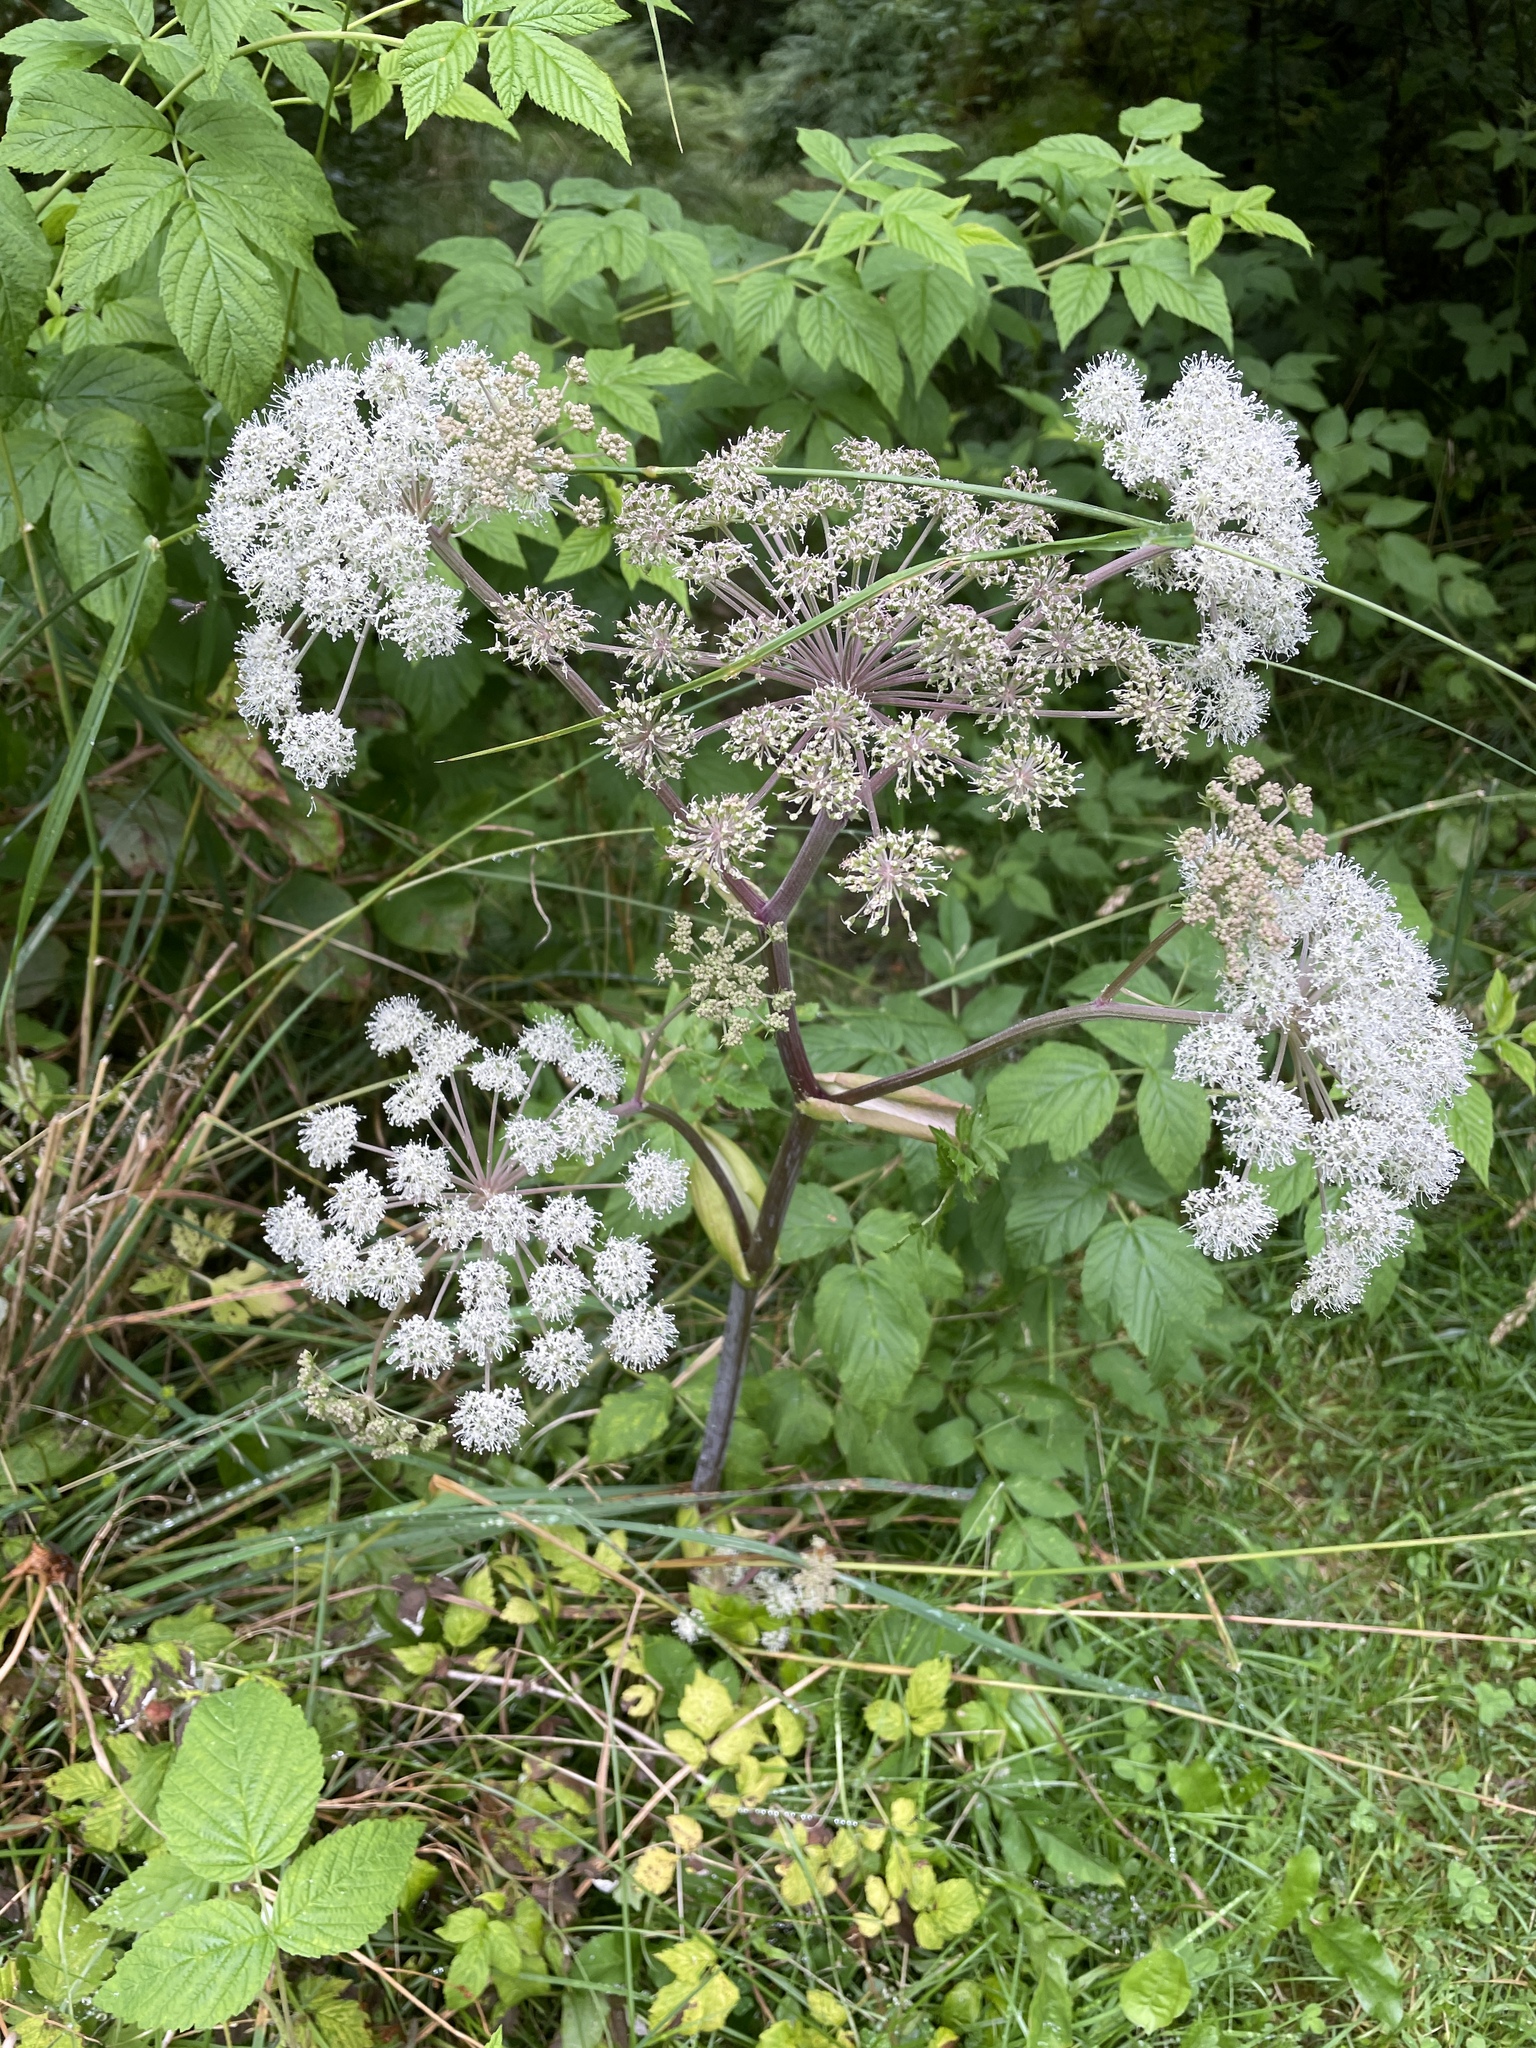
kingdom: Plantae
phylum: Tracheophyta
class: Magnoliopsida
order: Apiales
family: Apiaceae
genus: Angelica
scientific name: Angelica sylvestris
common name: Wild angelica
